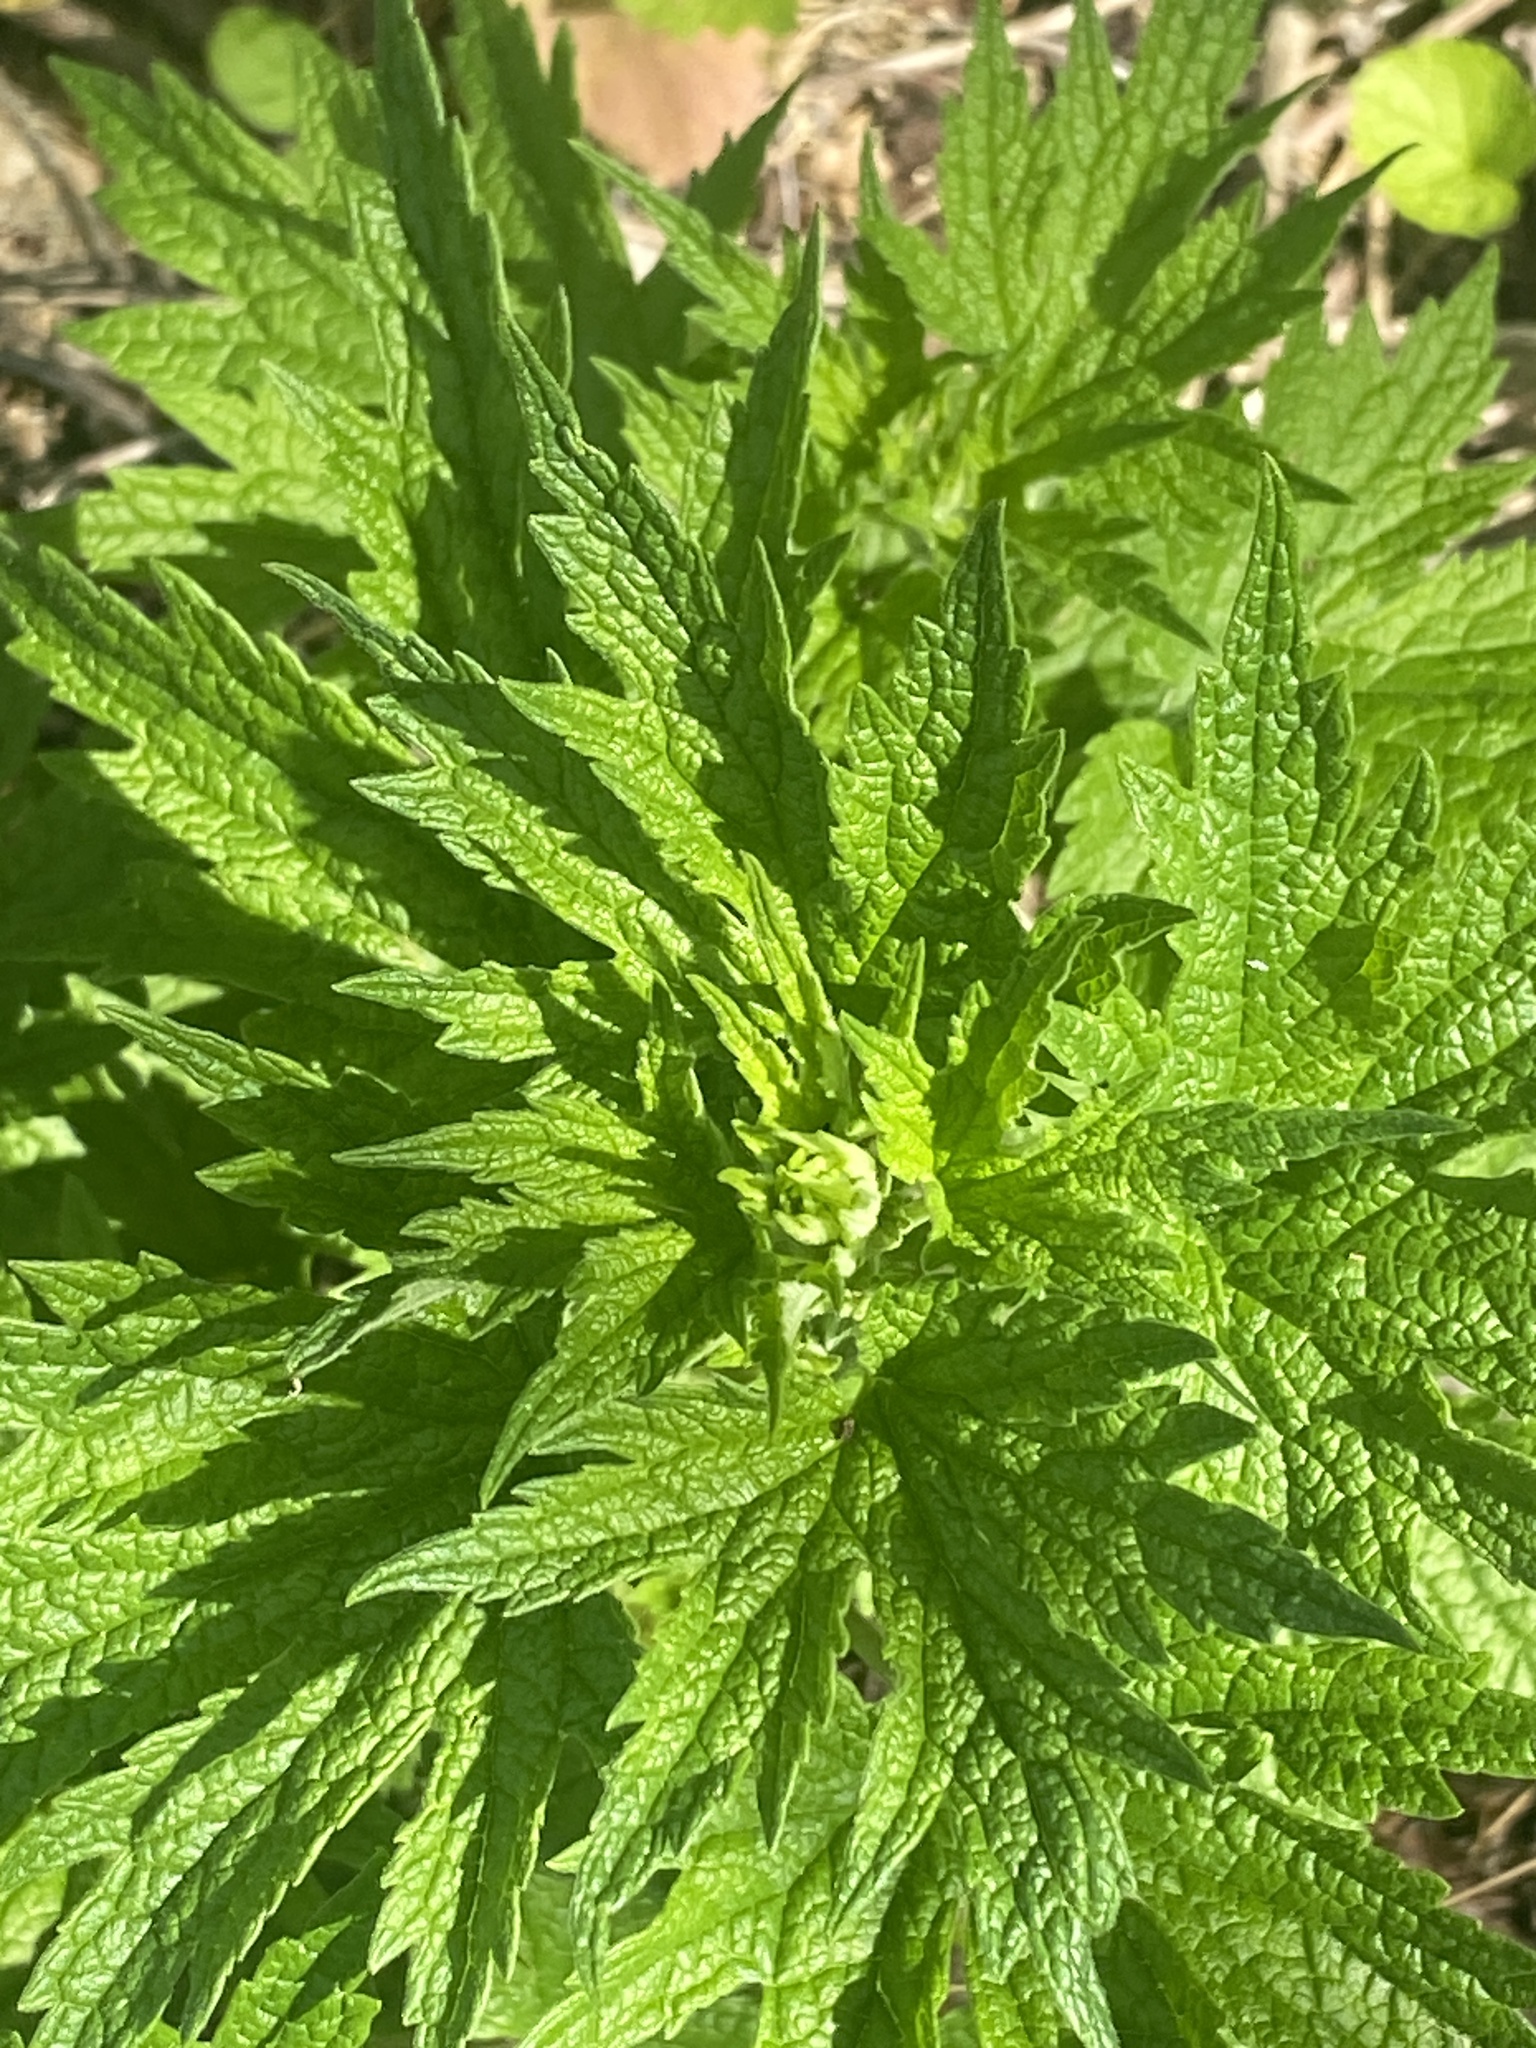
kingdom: Plantae
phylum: Tracheophyta
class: Magnoliopsida
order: Lamiales
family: Lamiaceae
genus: Leonurus
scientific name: Leonurus cardiaca
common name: Motherwort
